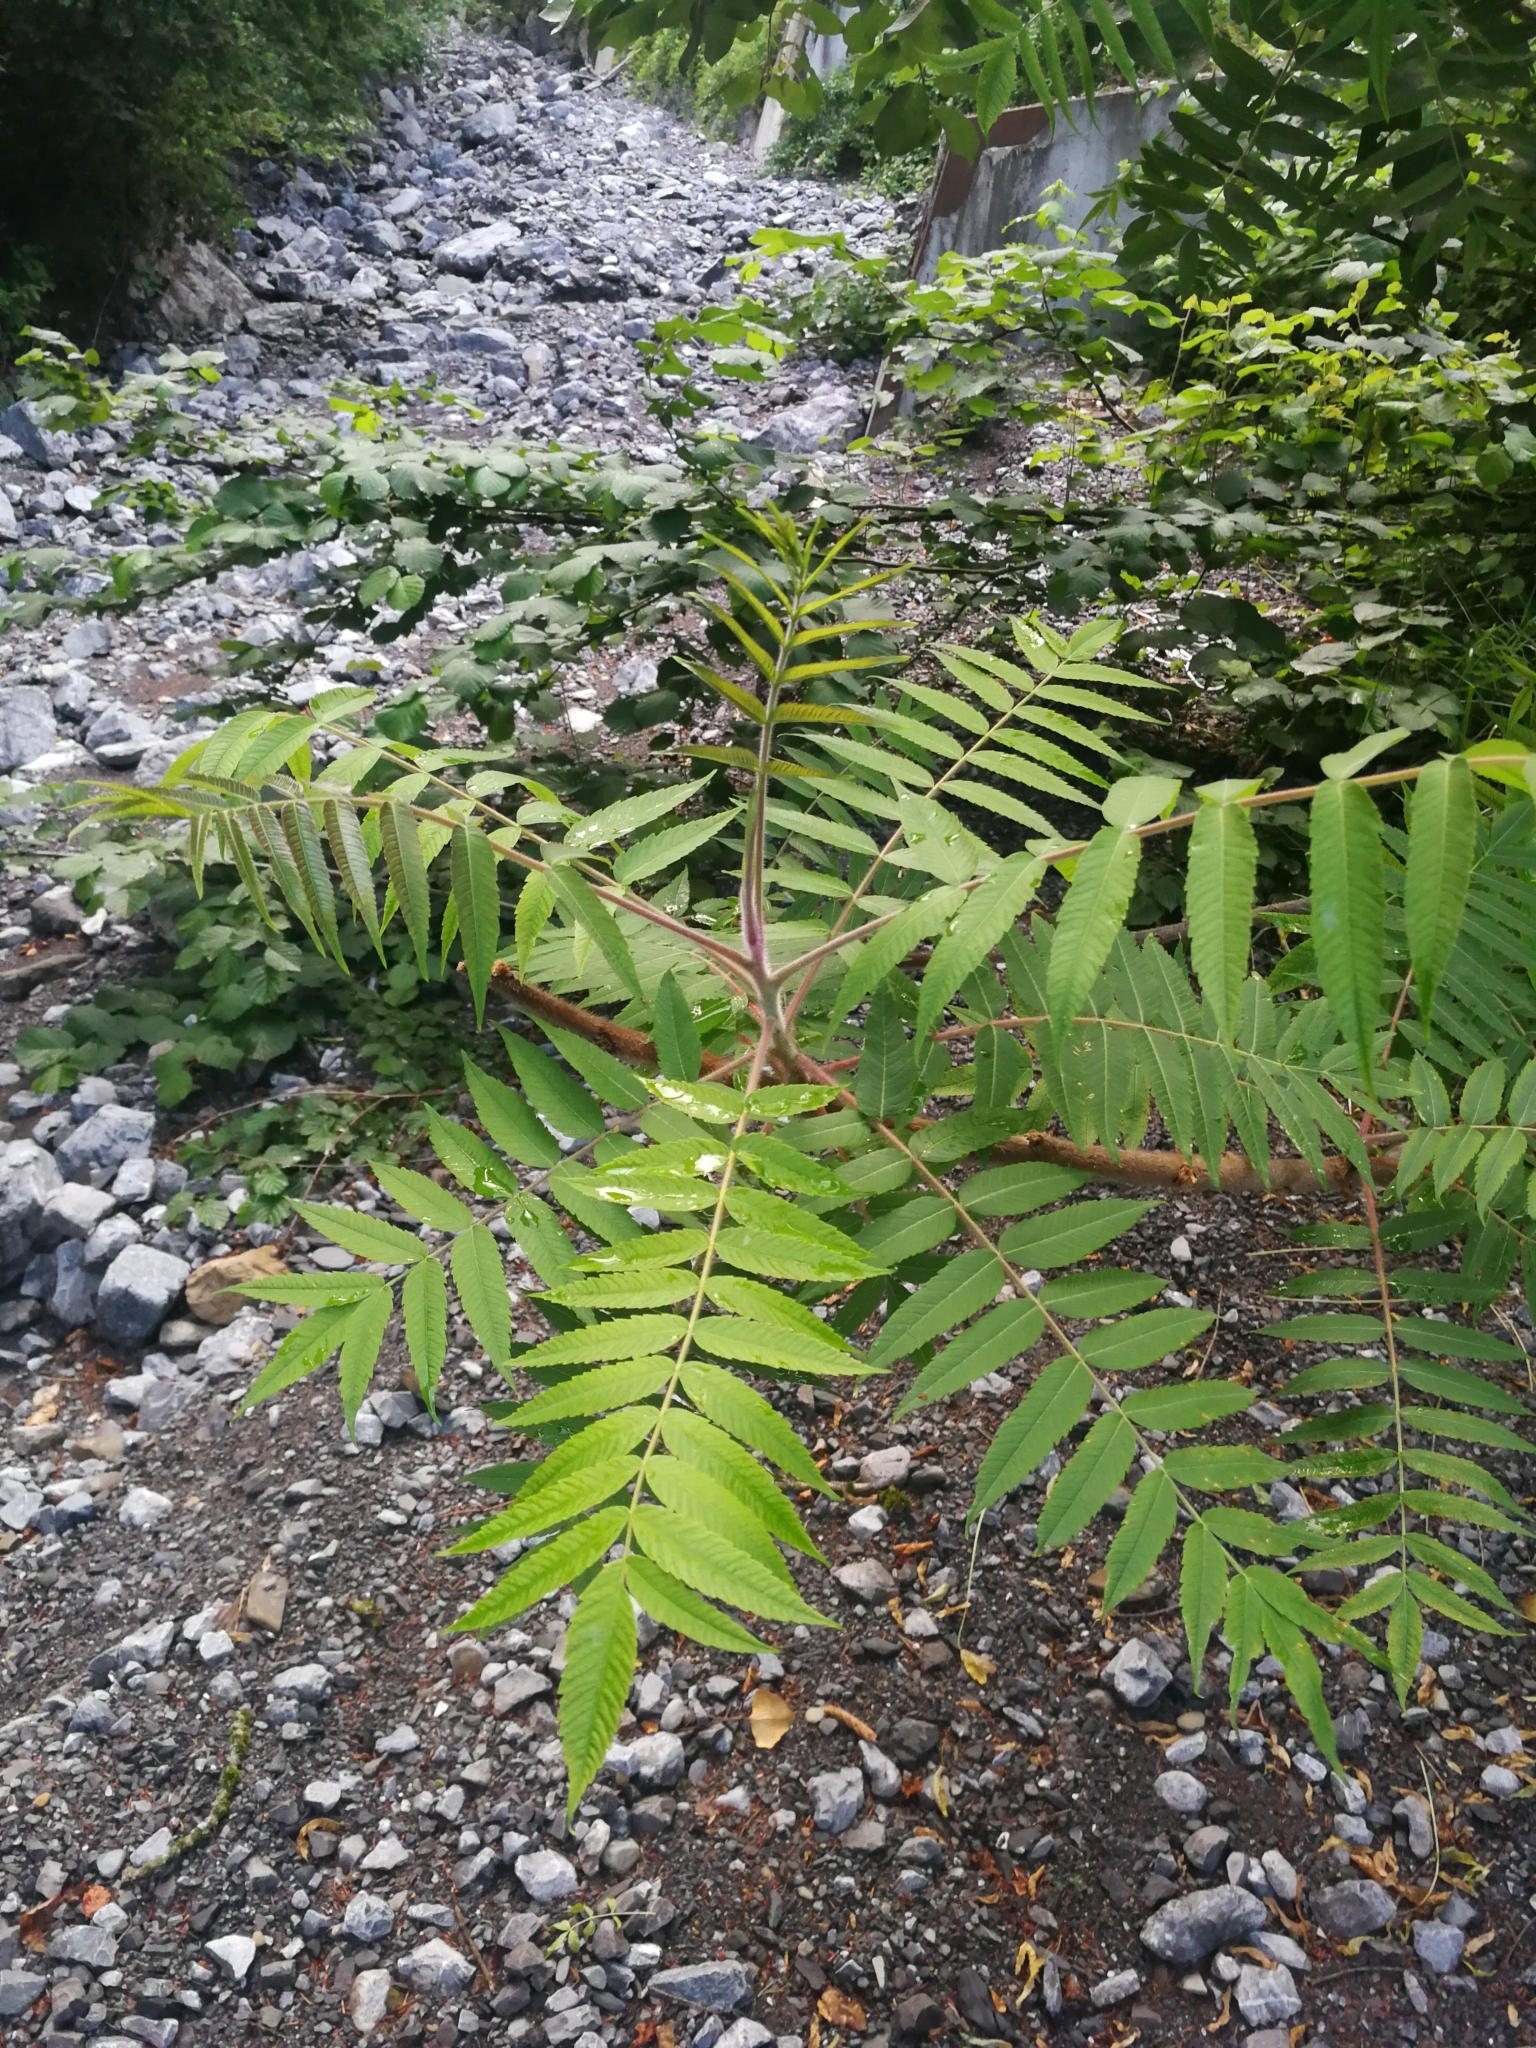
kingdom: Plantae
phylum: Tracheophyta
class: Magnoliopsida
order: Sapindales
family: Anacardiaceae
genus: Rhus
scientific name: Rhus typhina
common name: Staghorn sumac
